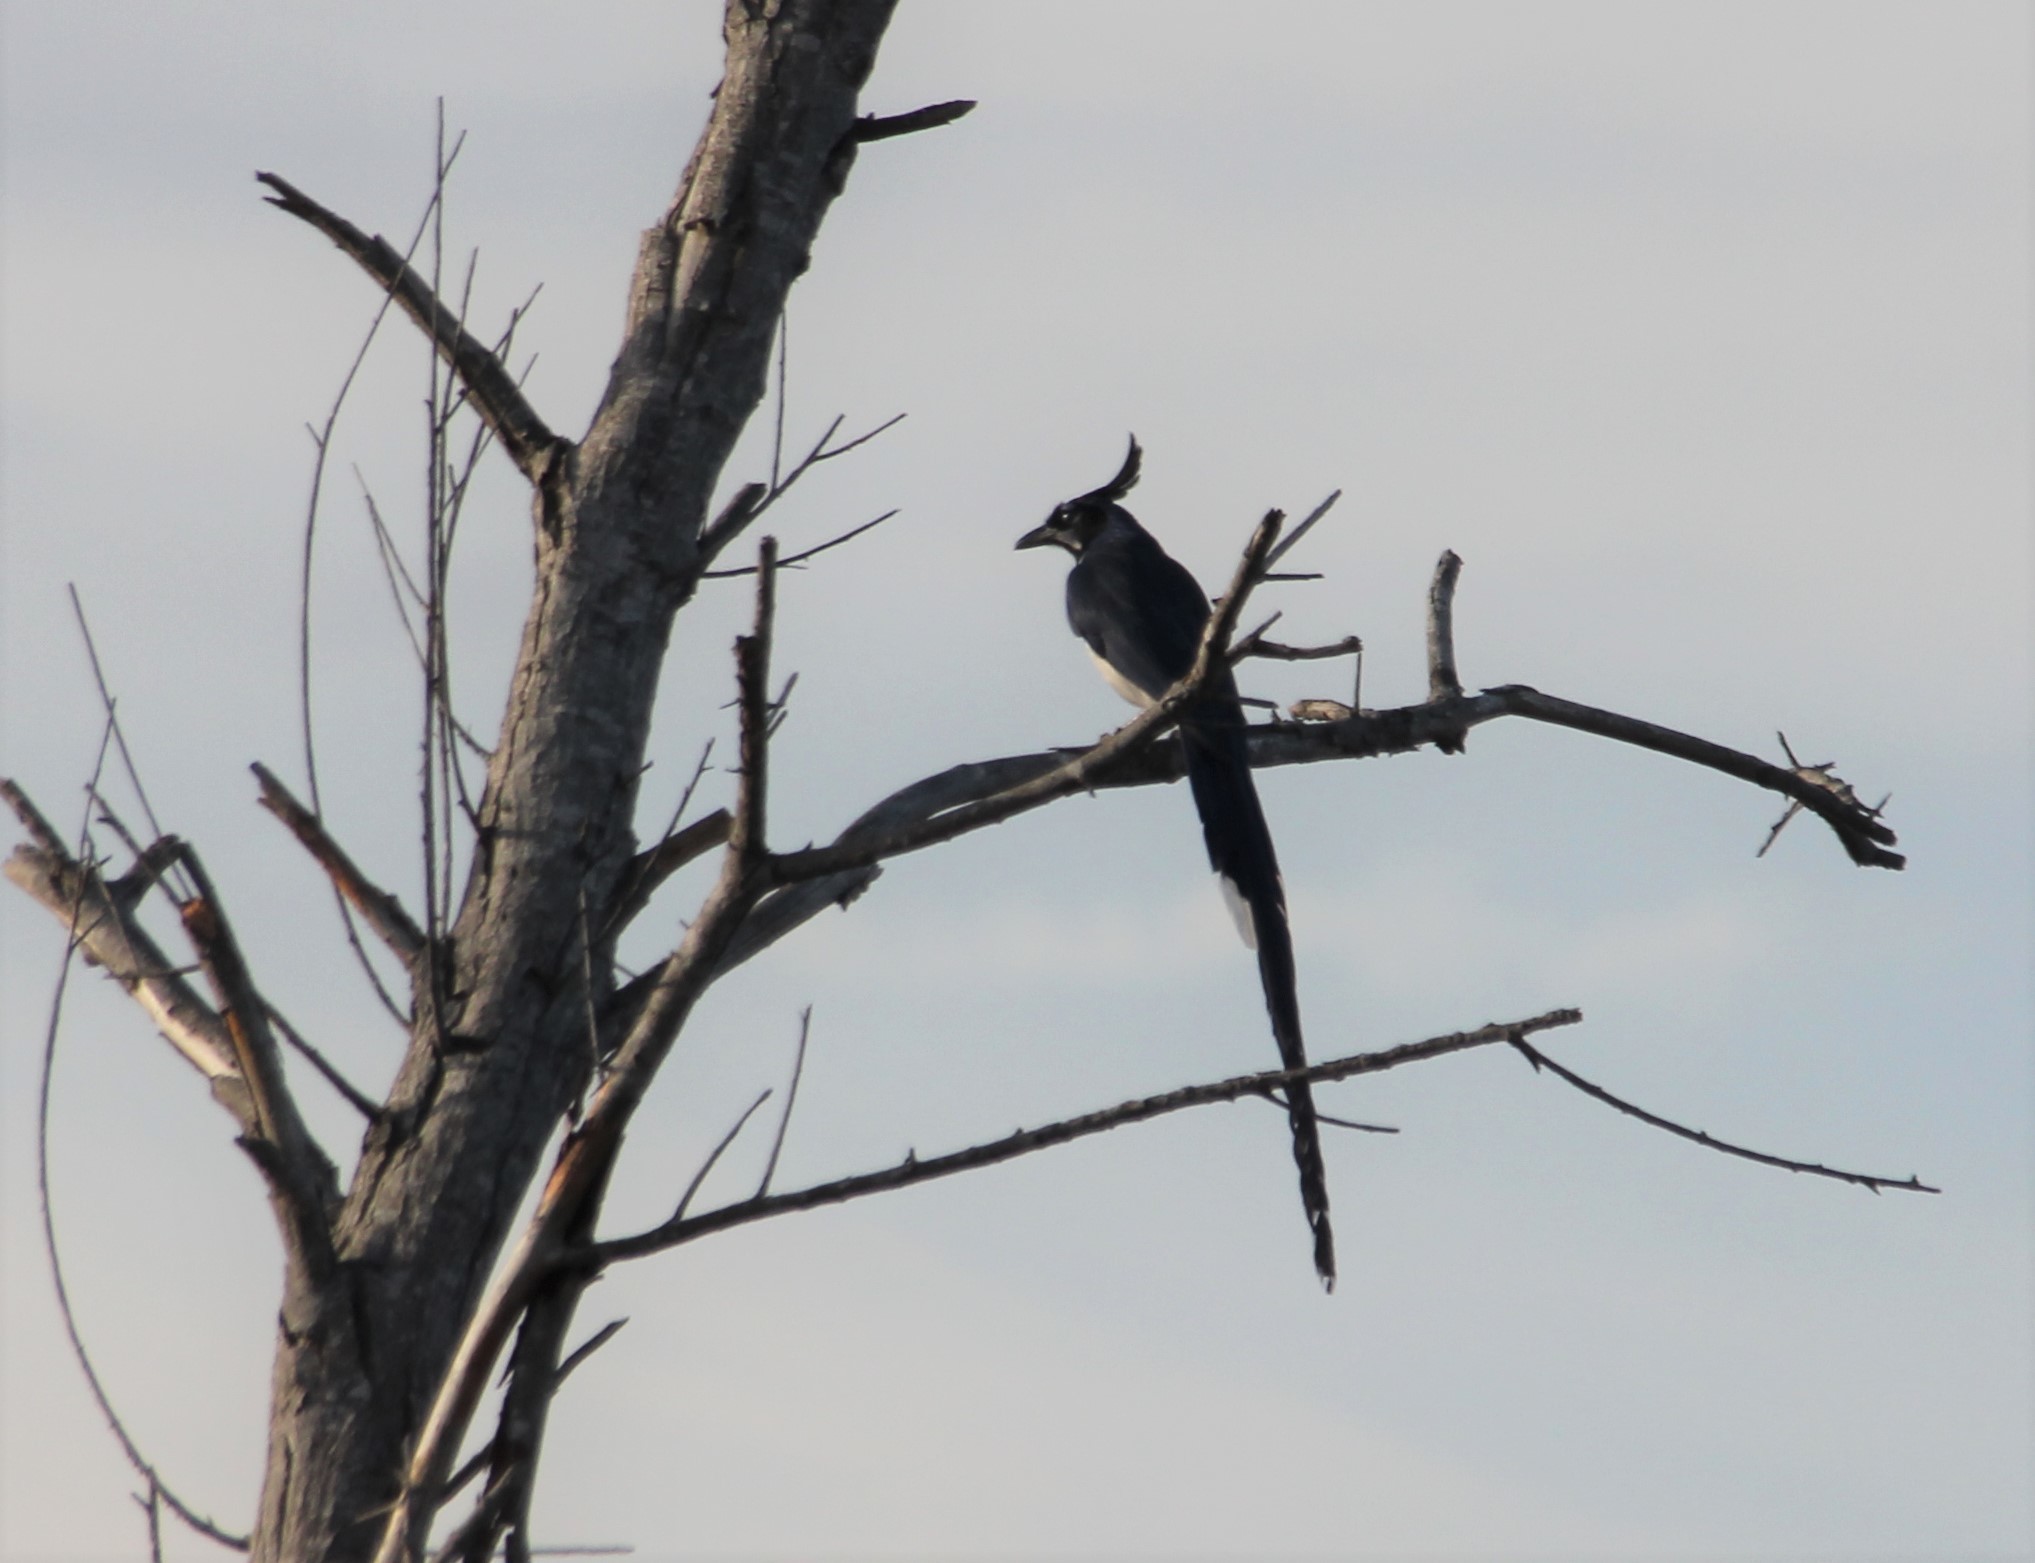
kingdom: Animalia
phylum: Chordata
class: Aves
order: Passeriformes
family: Corvidae
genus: Calocitta
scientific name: Calocitta colliei
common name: Black-throated magpie-jay
